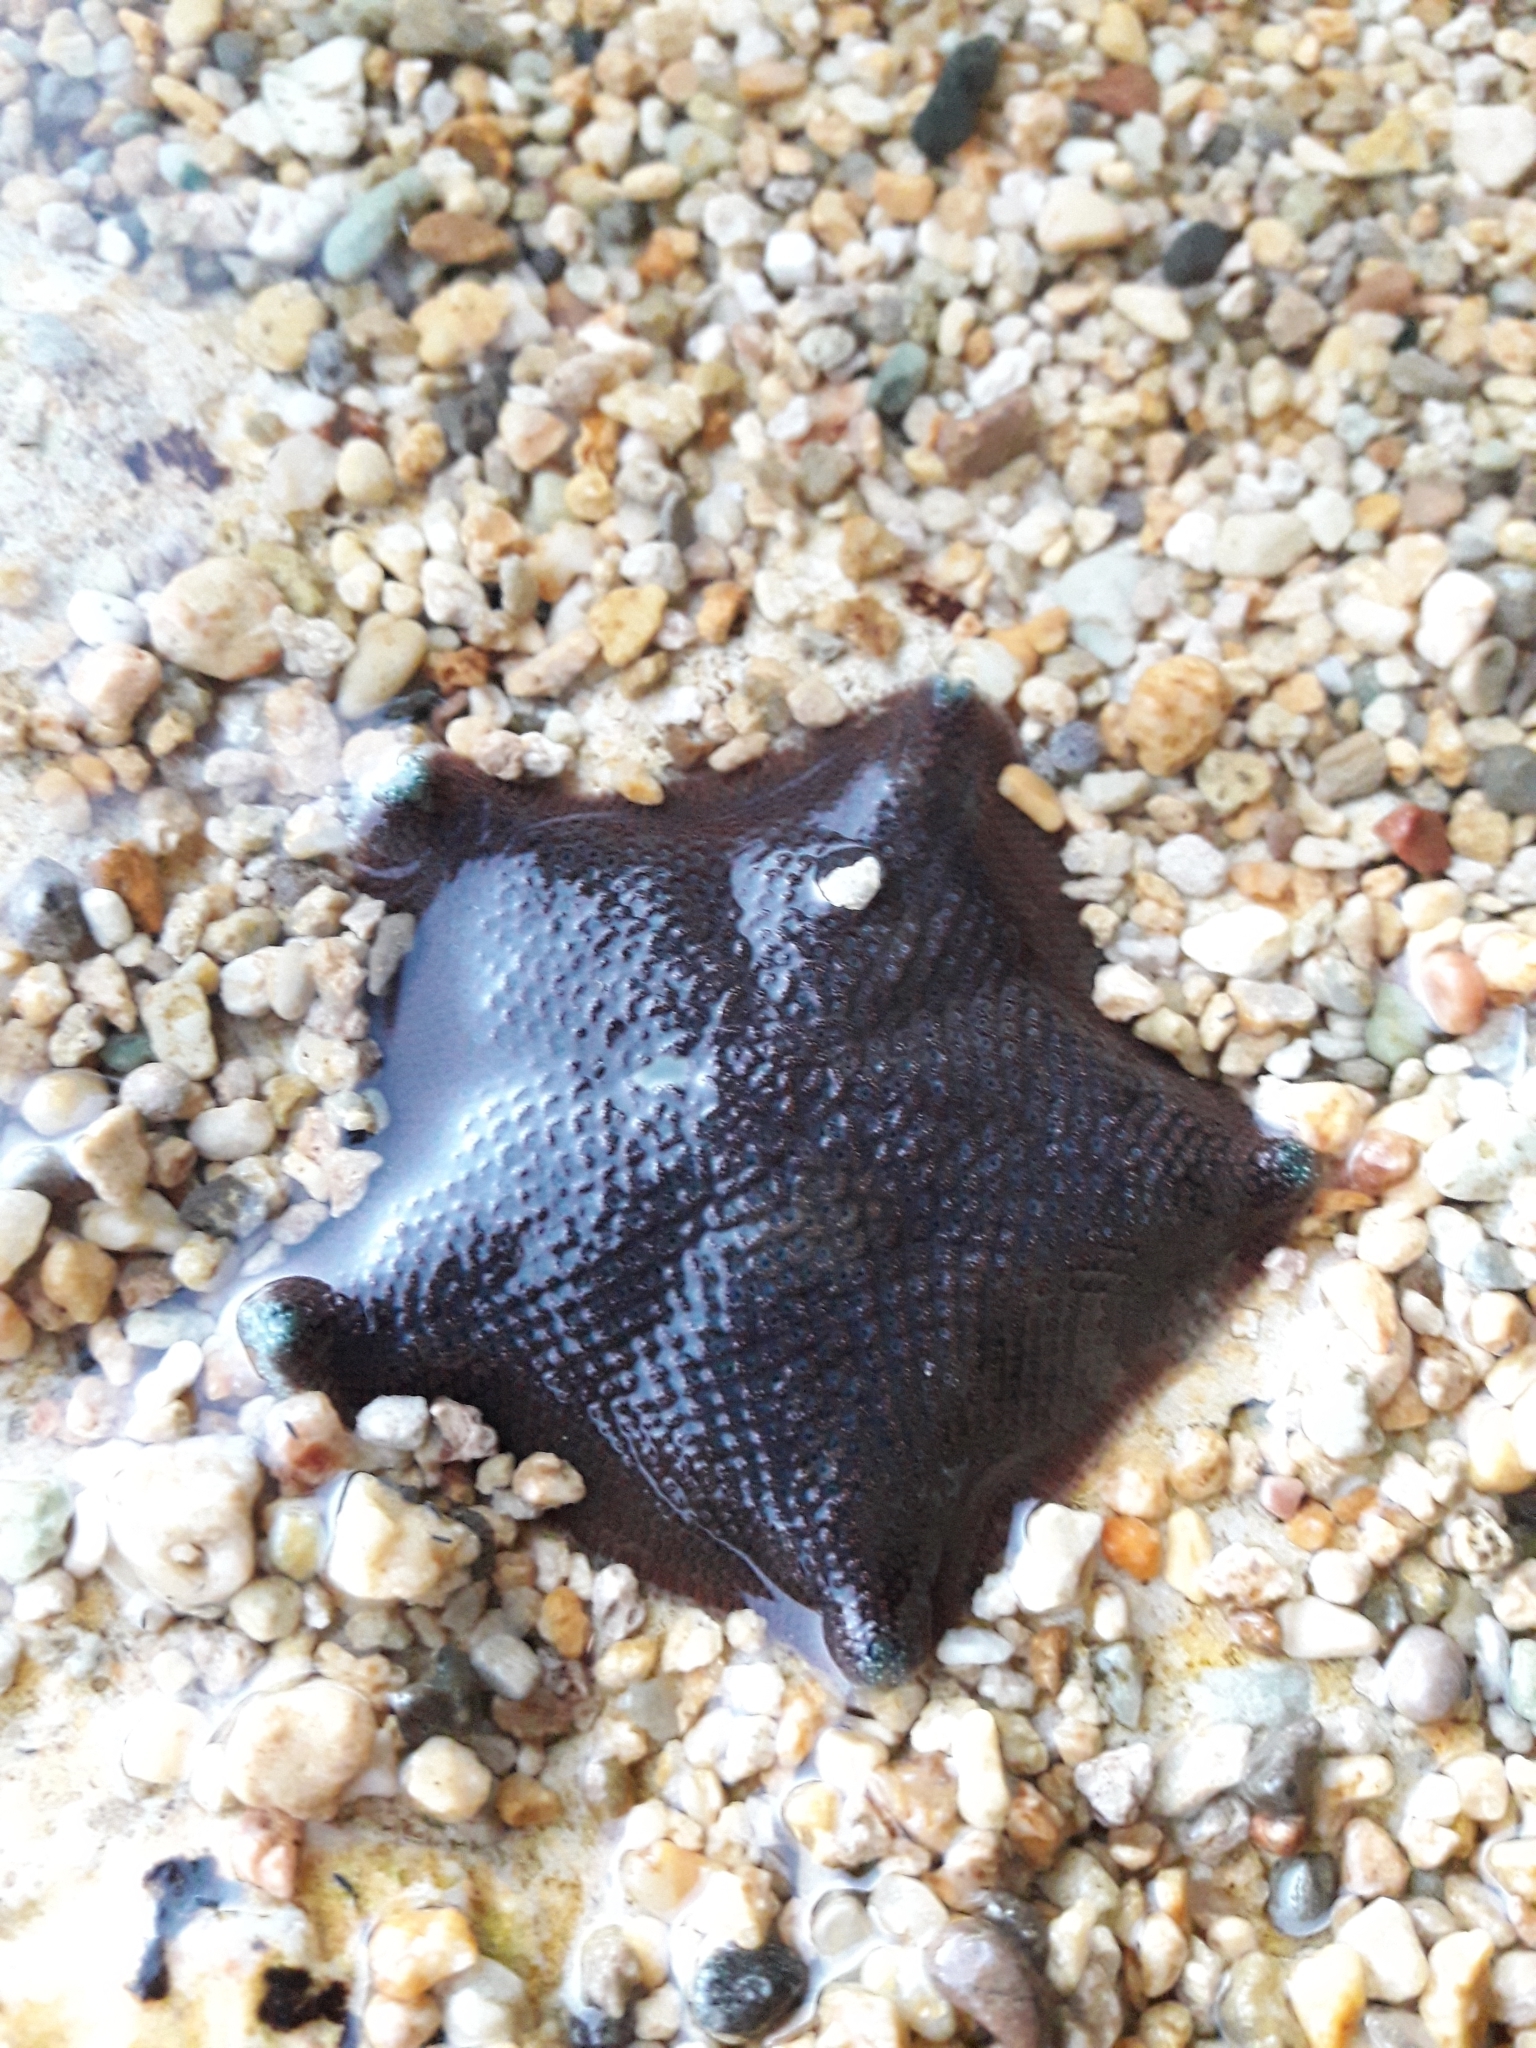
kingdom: Animalia
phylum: Echinodermata
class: Asteroidea
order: Valvatida
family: Asterinidae
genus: Patiriella
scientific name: Patiriella regularis
